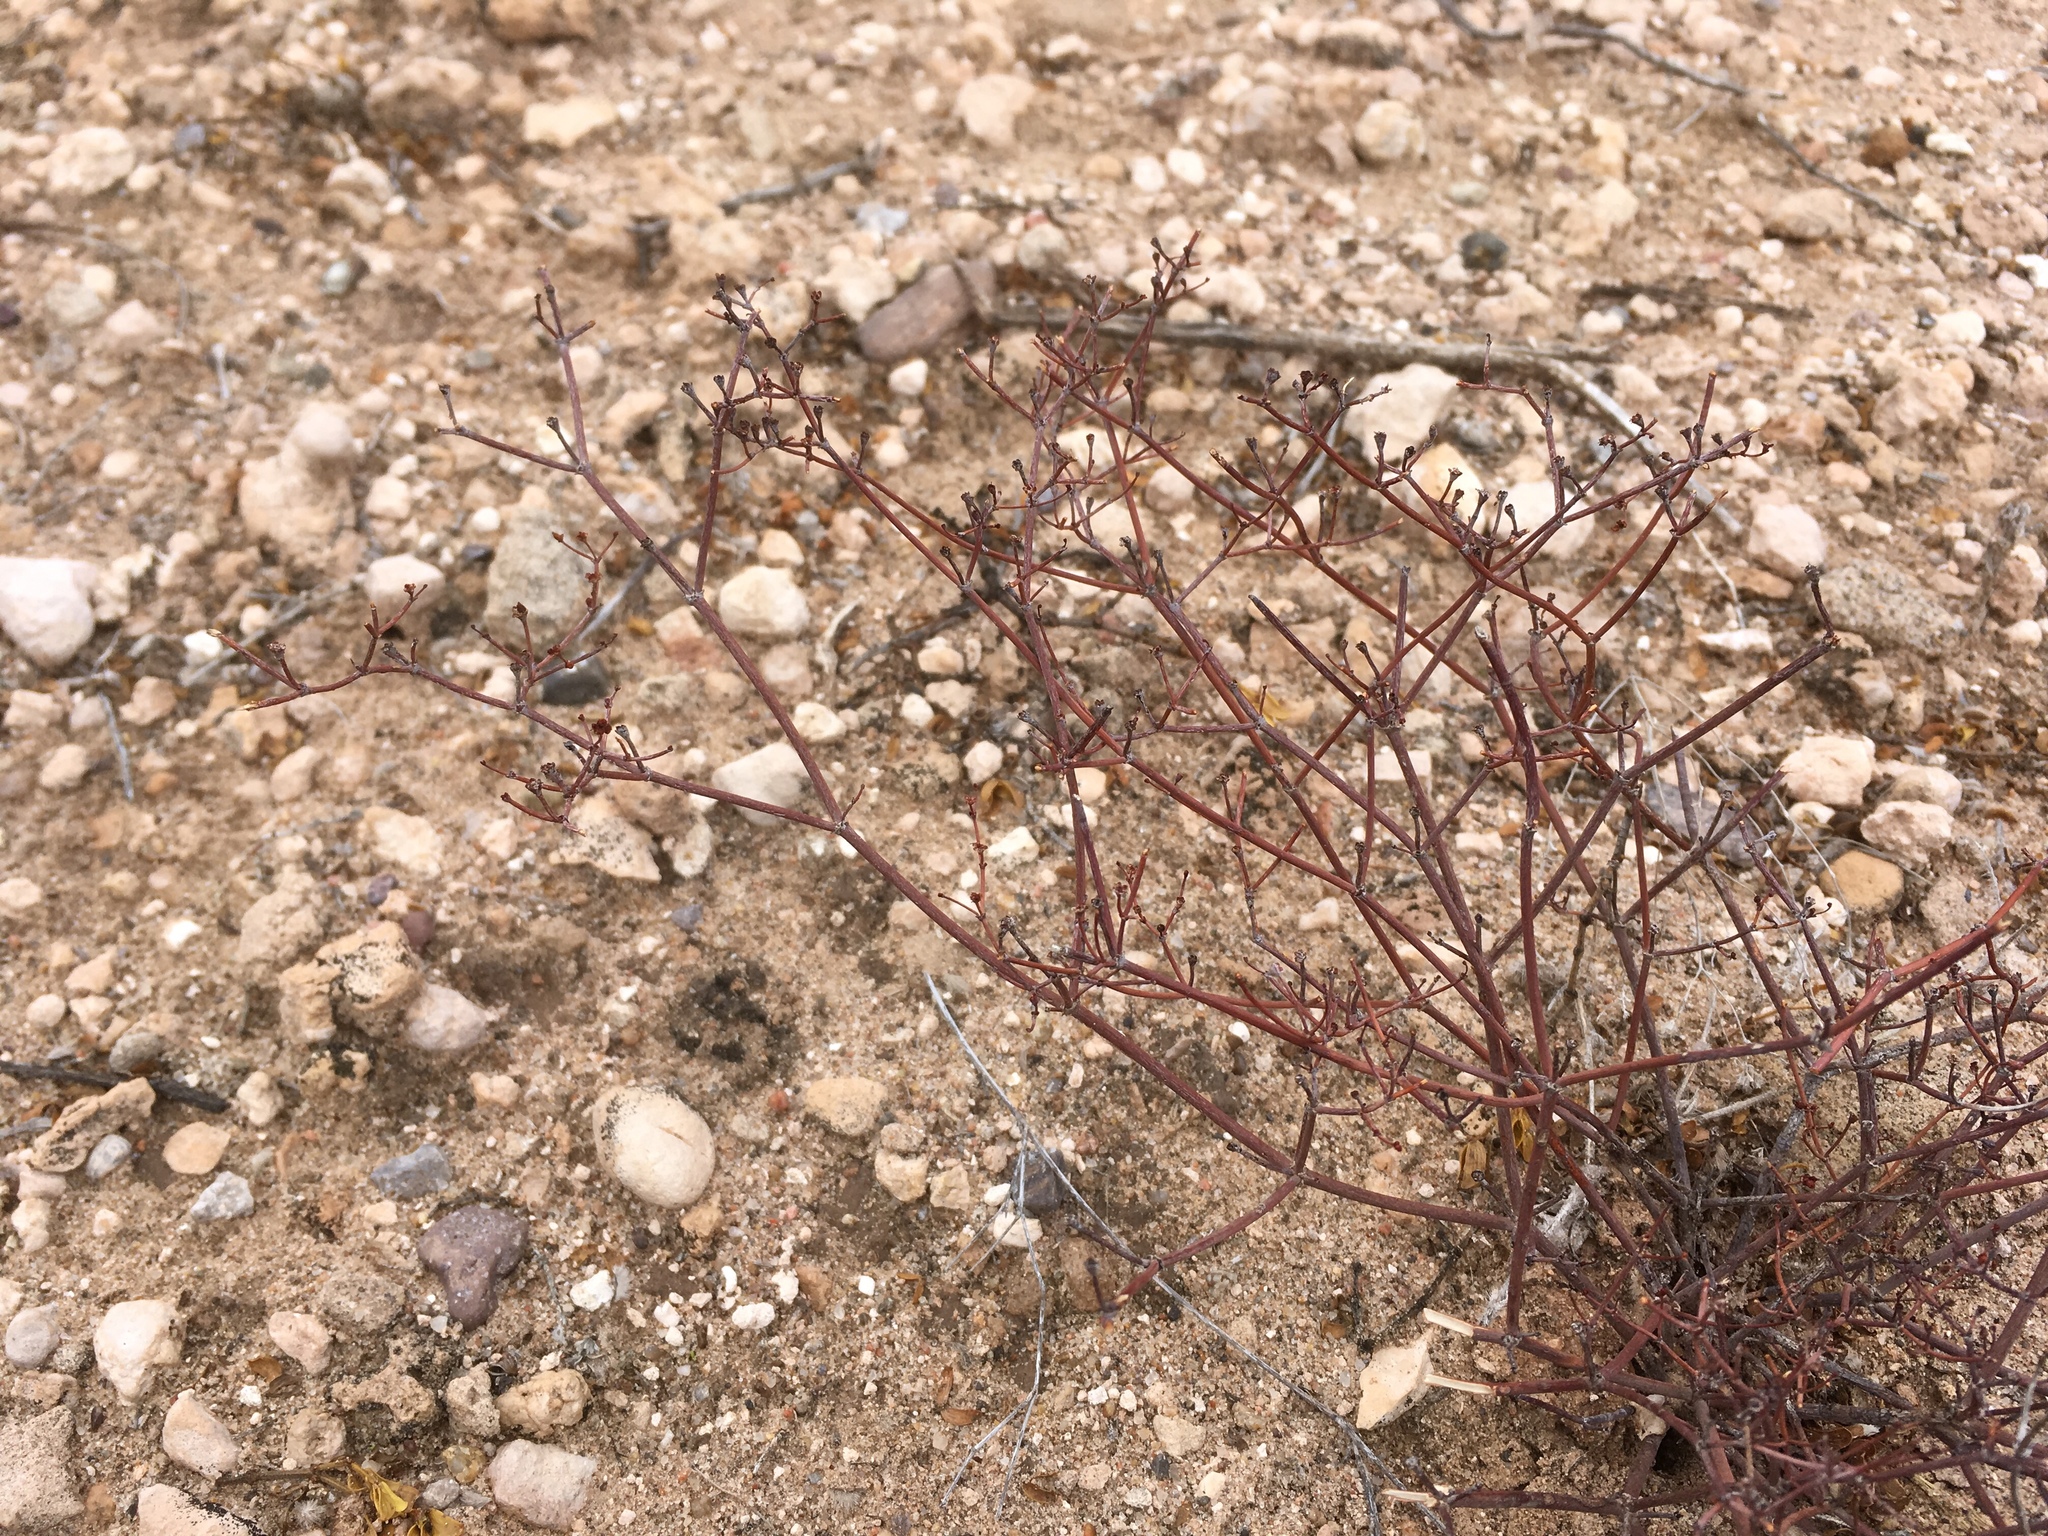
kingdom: Plantae
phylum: Tracheophyta
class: Magnoliopsida
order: Caryophyllales
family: Polygonaceae
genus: Eriogonum
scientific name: Eriogonum rotundifolium
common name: Round-leaf wild buckwheat
